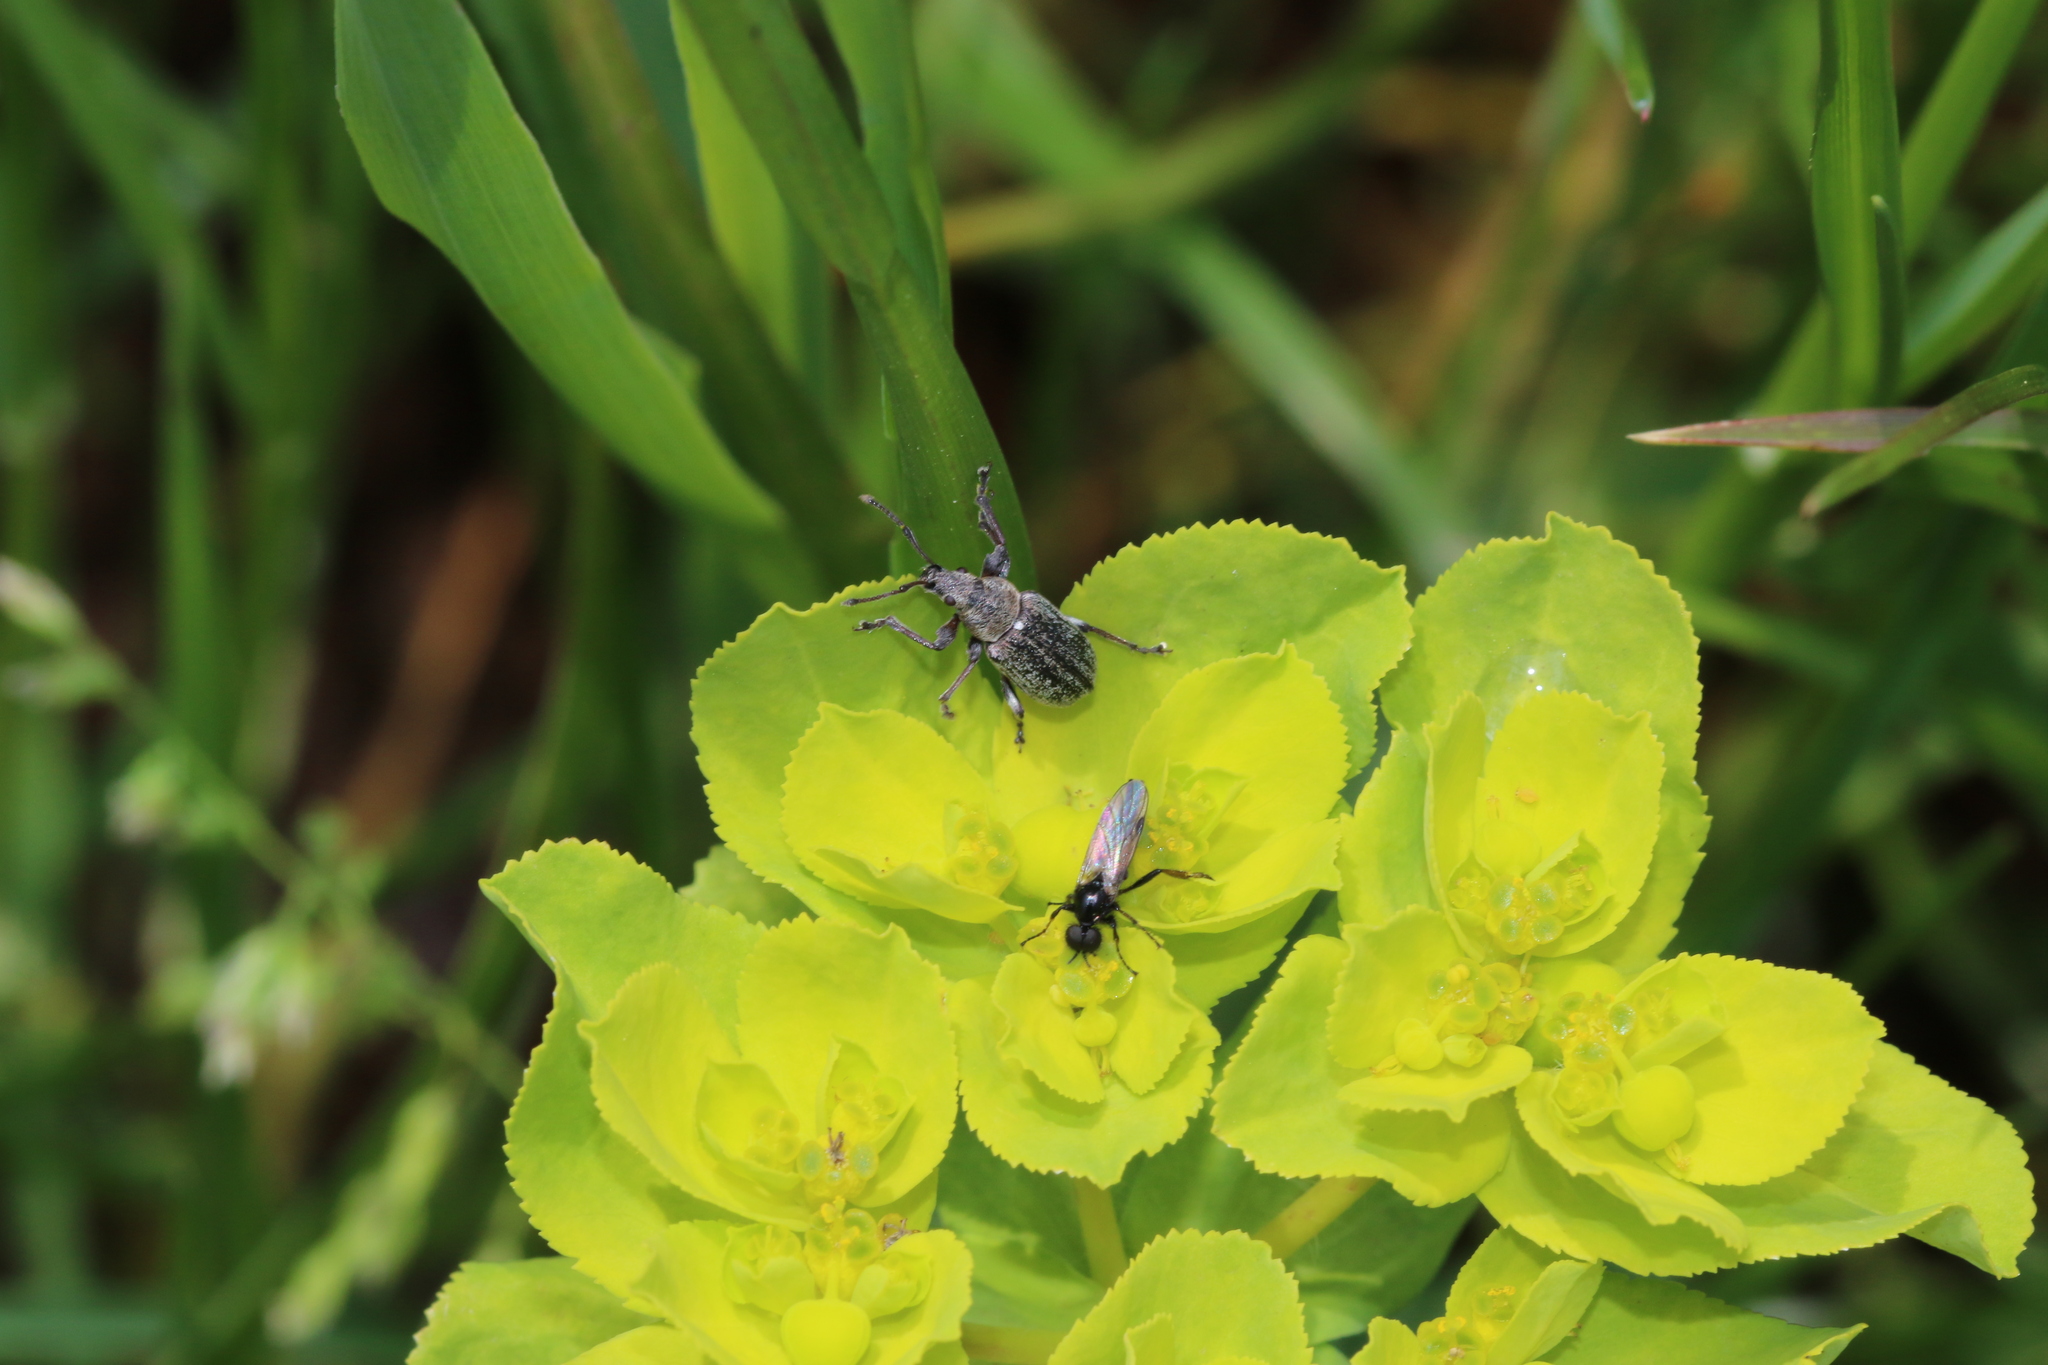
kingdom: Animalia
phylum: Arthropoda
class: Insecta
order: Coleoptera
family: Curculionidae
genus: Phyllobius
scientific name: Phyllobius pyri
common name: Common leaf weevil
